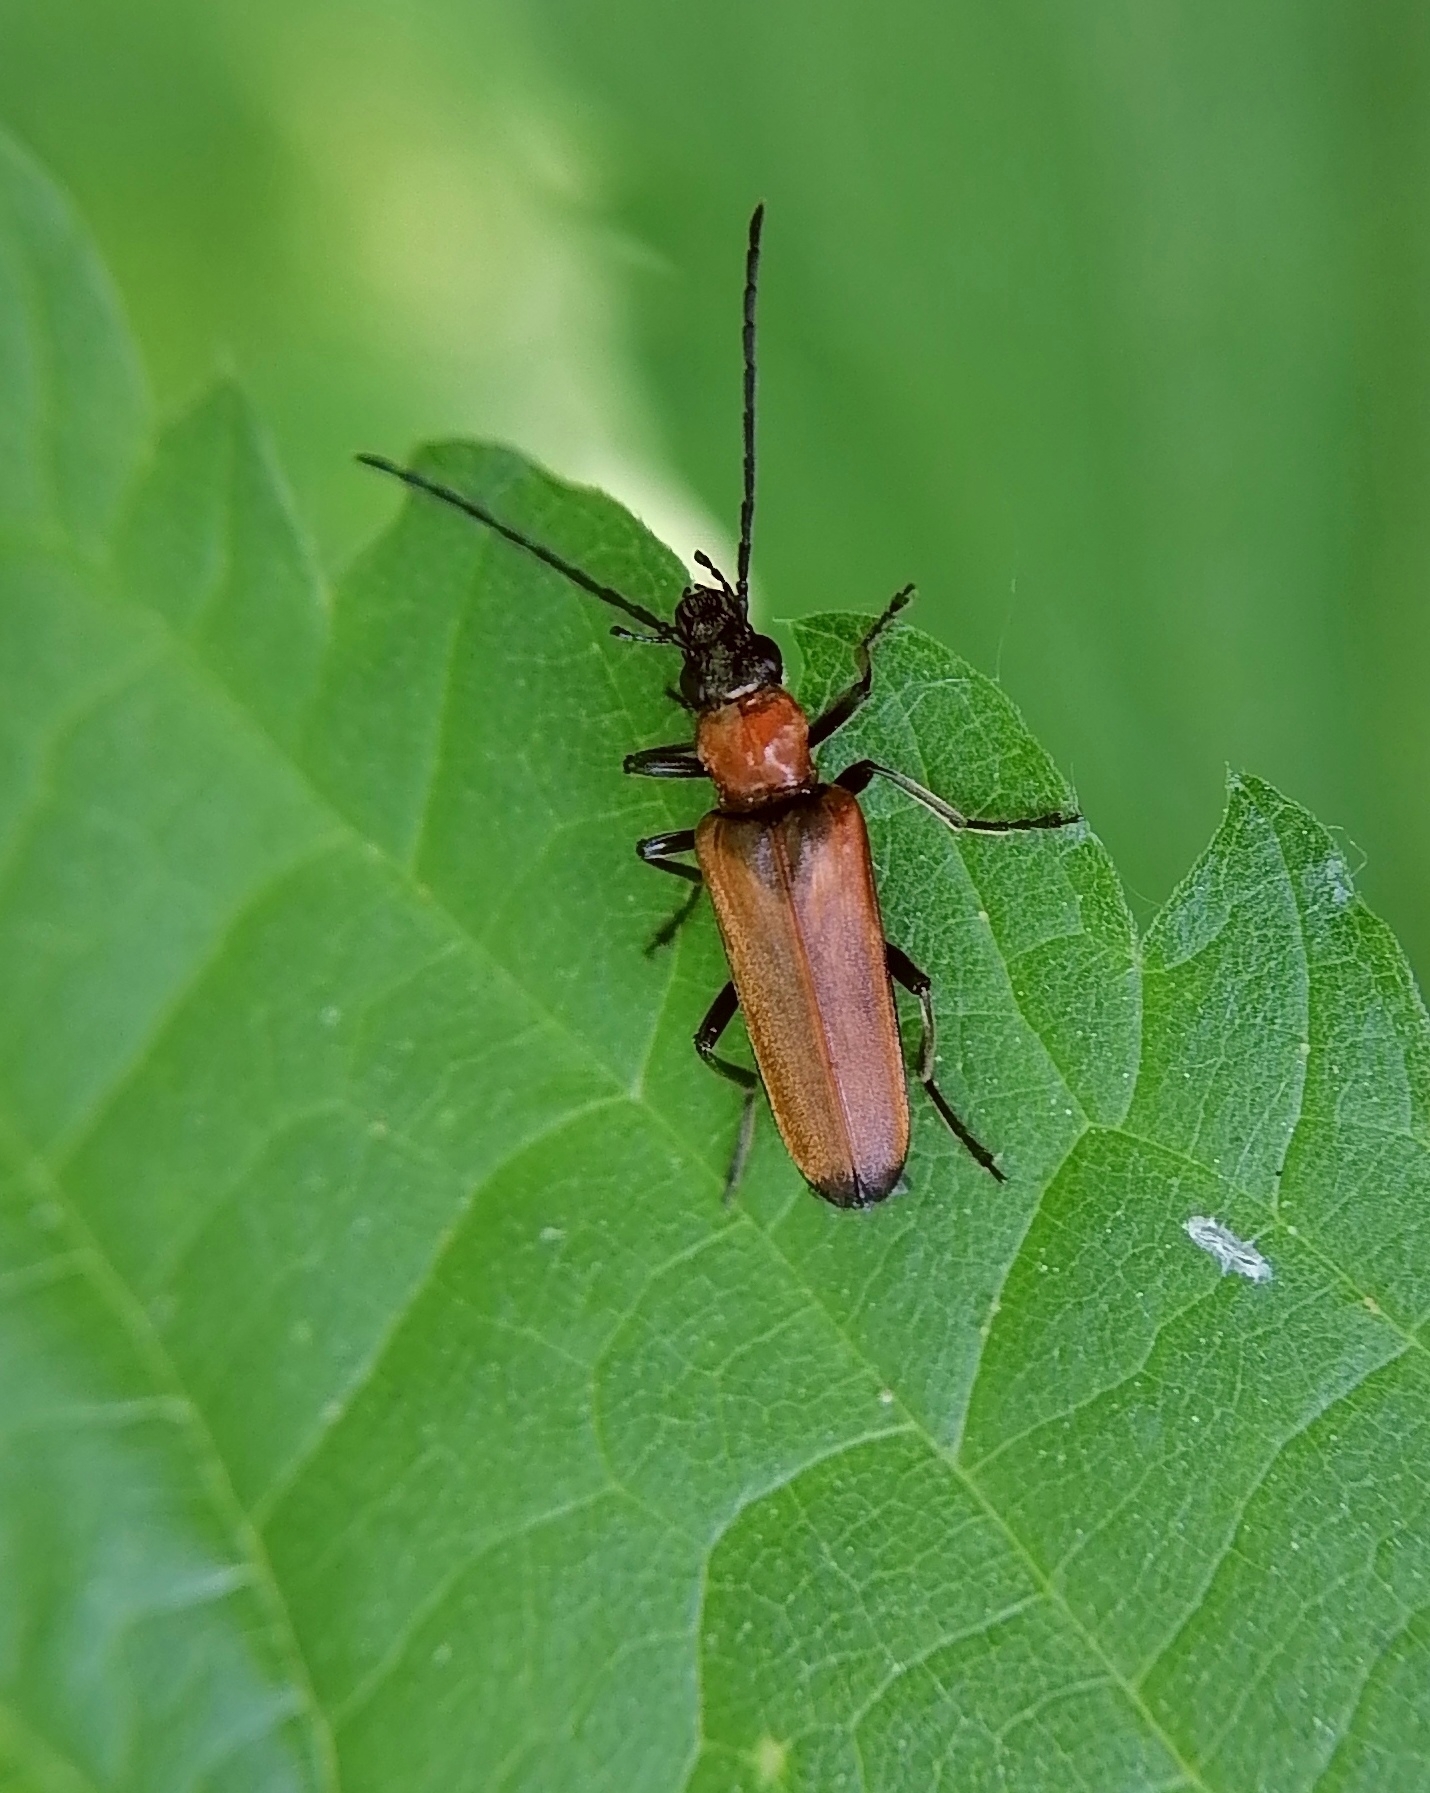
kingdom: Animalia
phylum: Arthropoda
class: Insecta
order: Coleoptera
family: Oedemeridae
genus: Anogcodes
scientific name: Anogcodes melanurus
